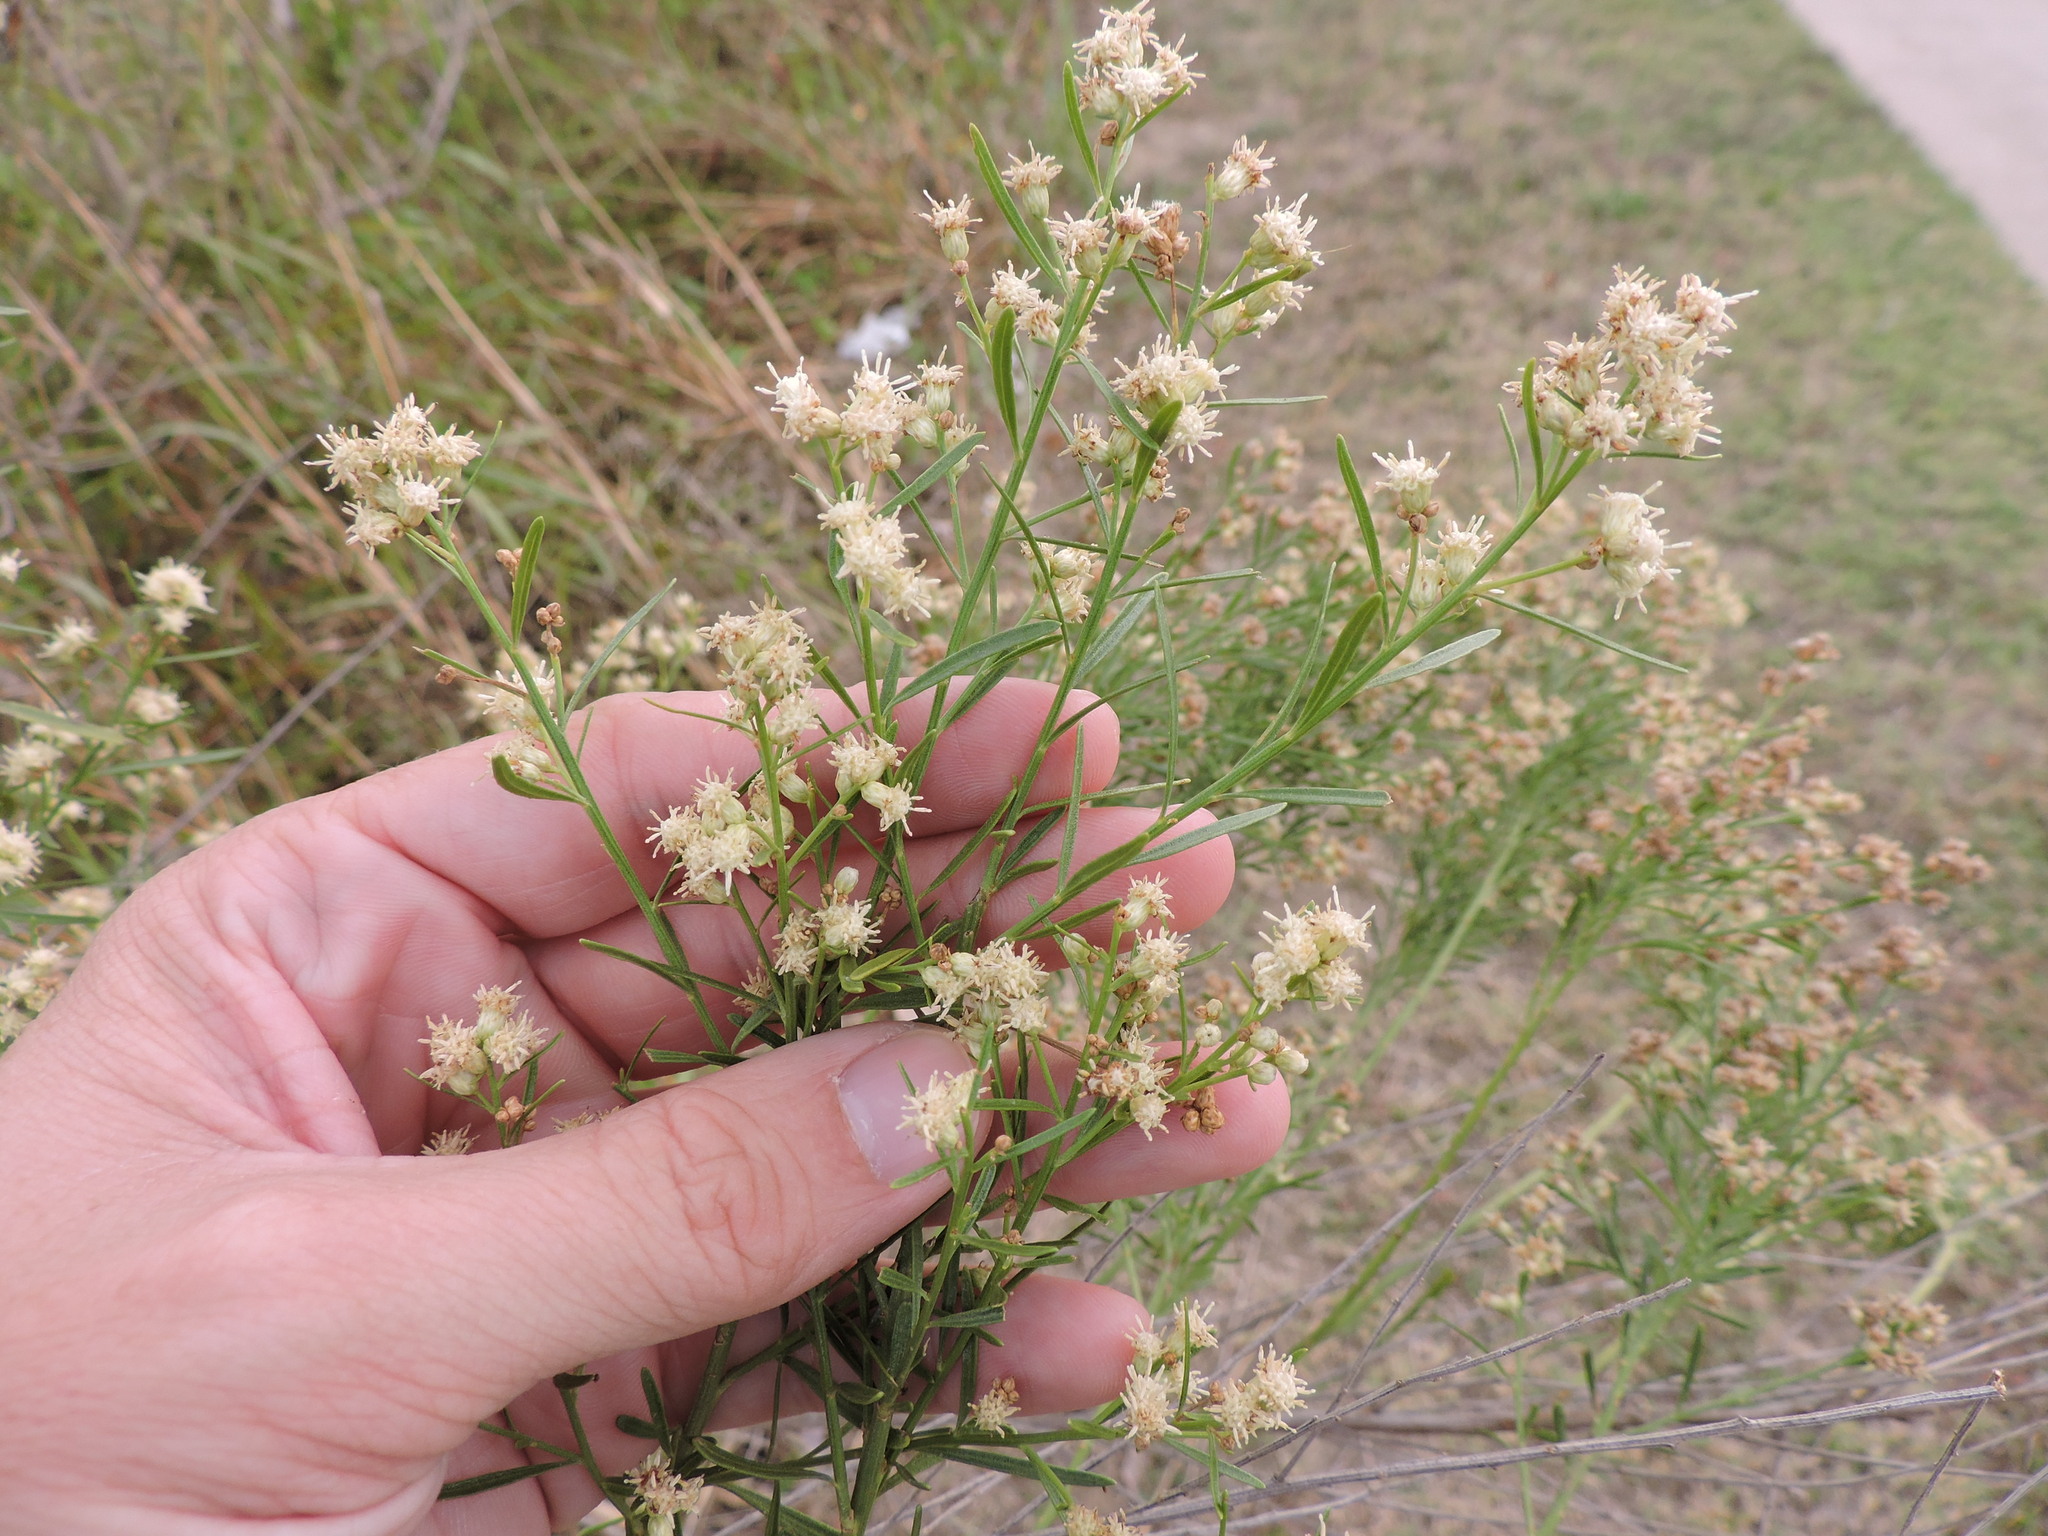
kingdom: Plantae
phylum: Tracheophyta
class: Magnoliopsida
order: Asterales
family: Asteraceae
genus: Baccharis
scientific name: Baccharis neglecta
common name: Roosevelt-weed
